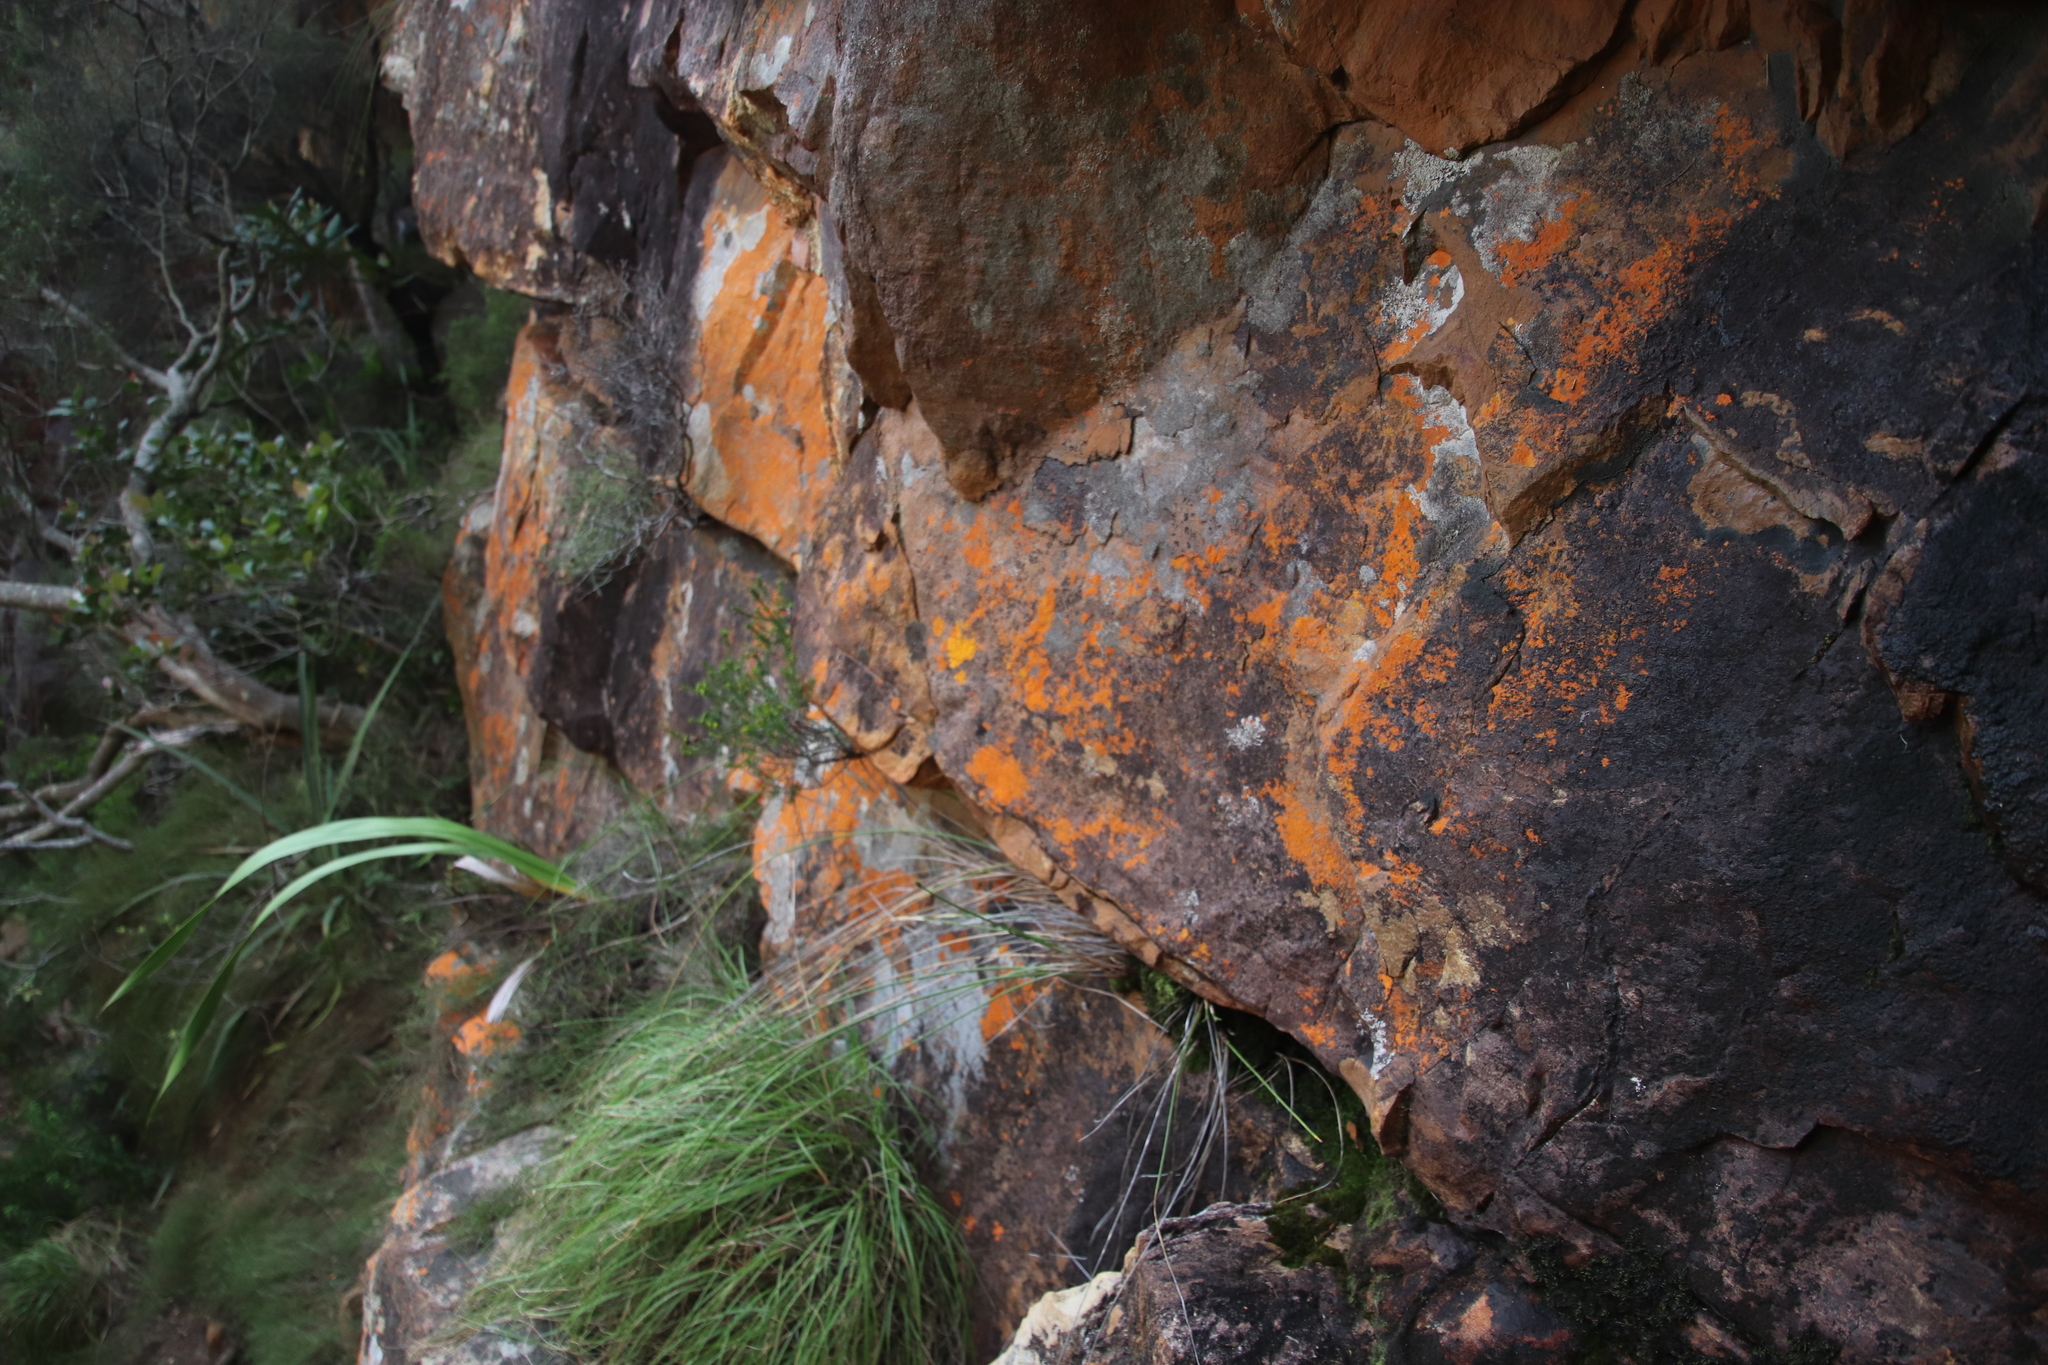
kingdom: Plantae
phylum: Tracheophyta
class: Liliopsida
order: Poales
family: Cyperaceae
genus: Ficinia
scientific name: Ficinia brevifolia
